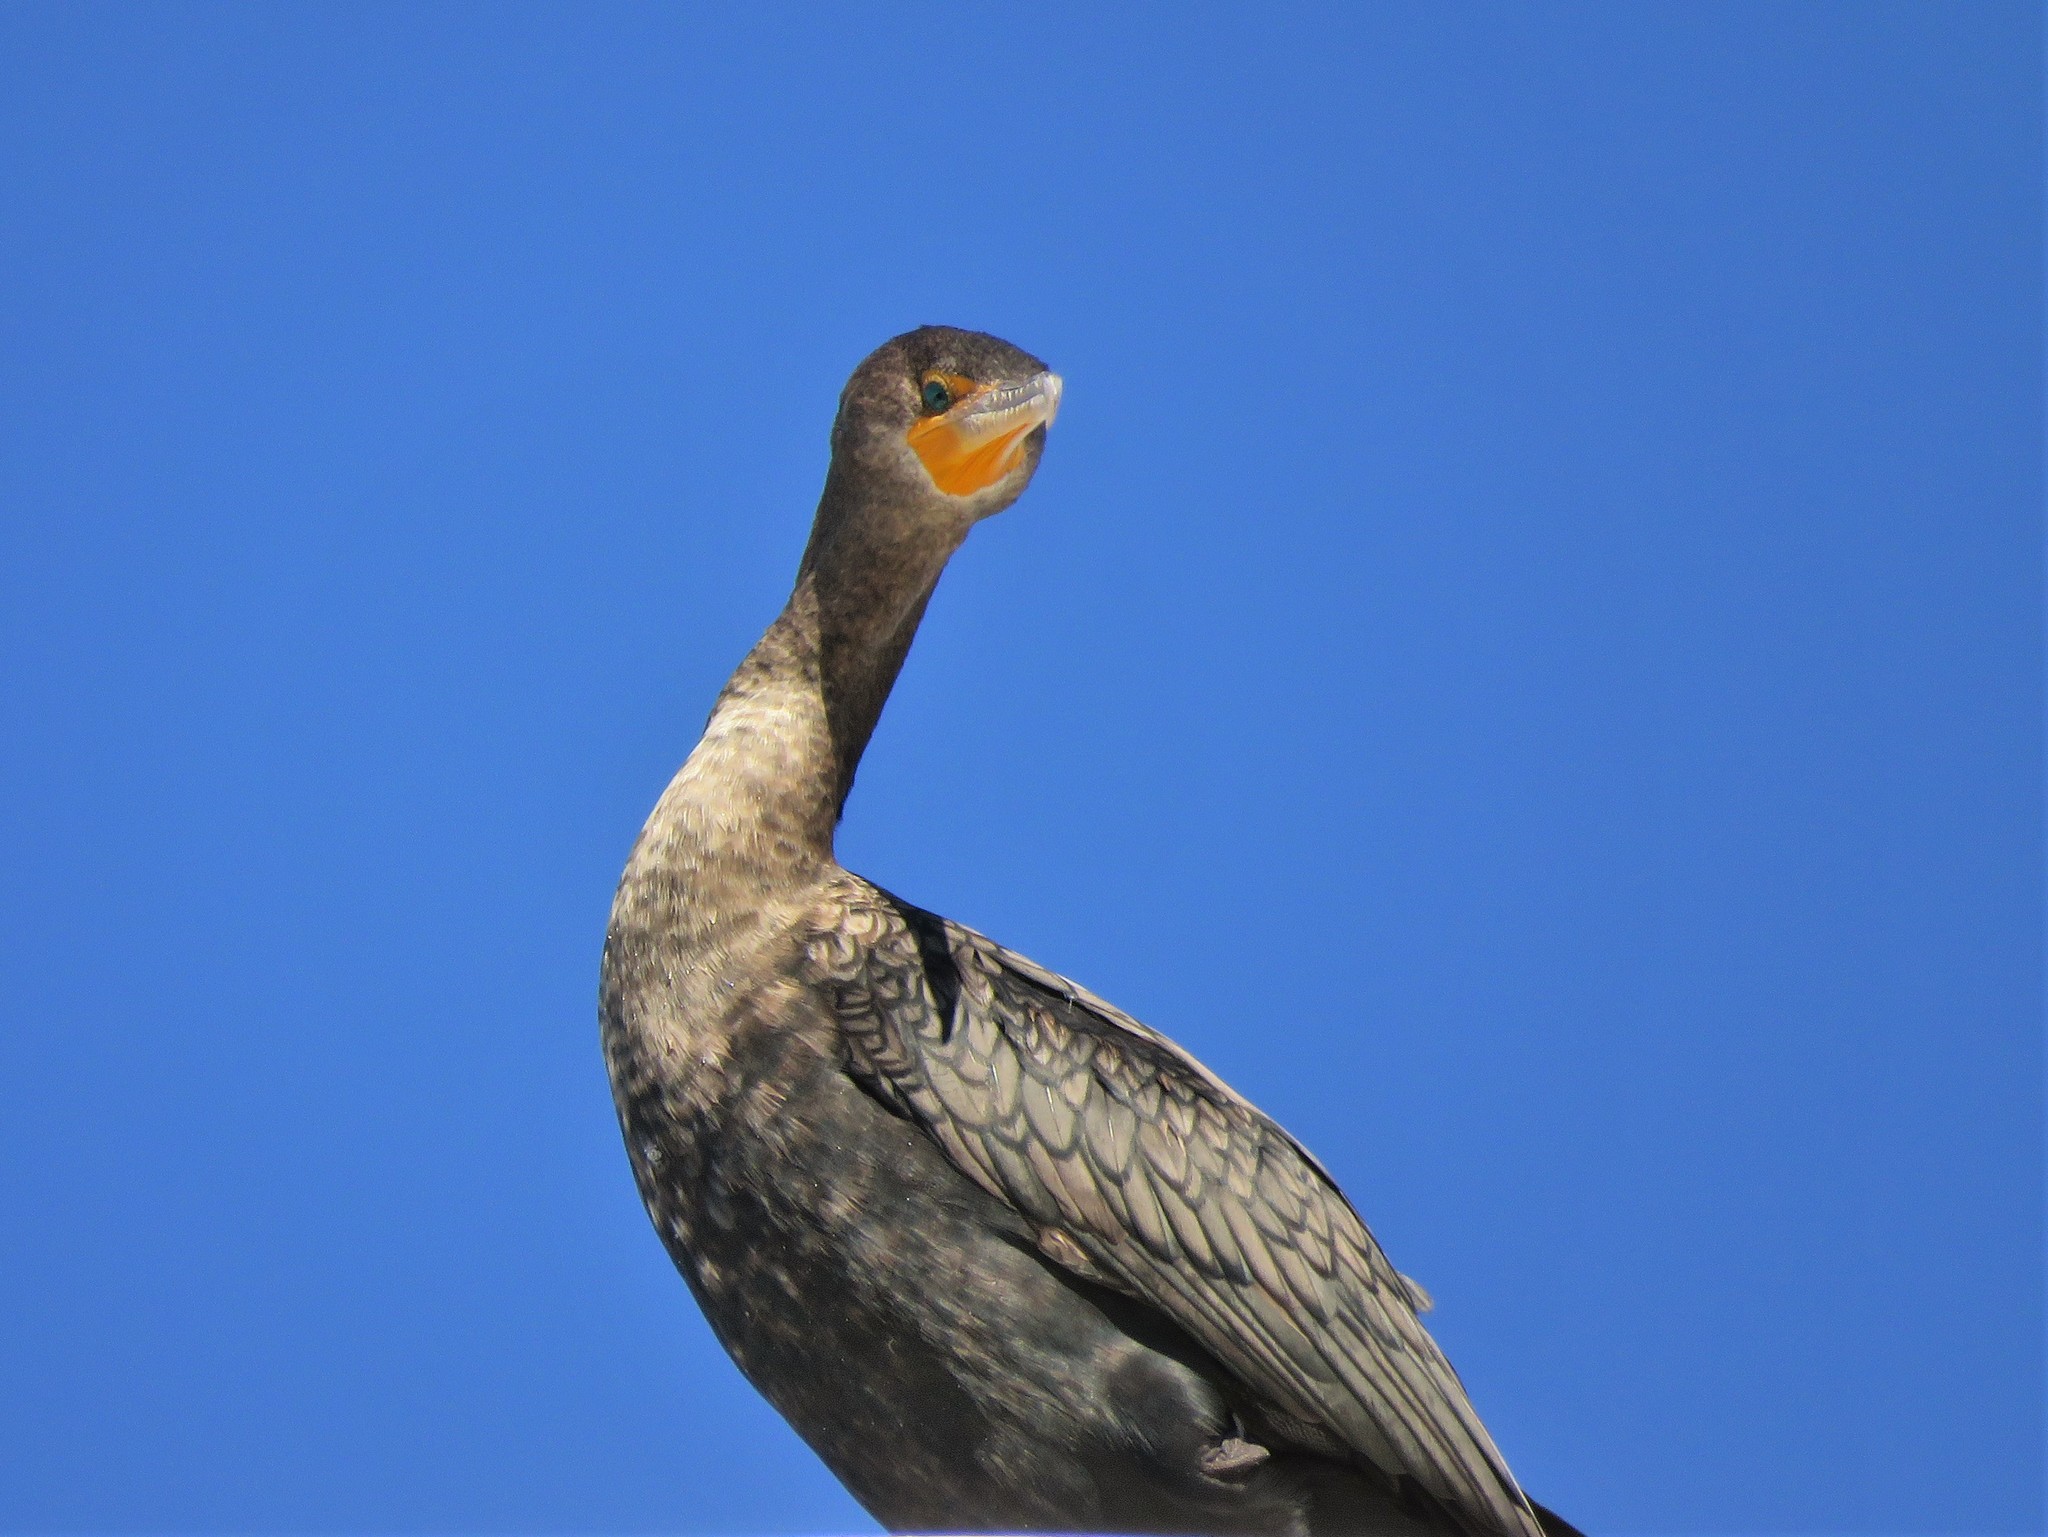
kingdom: Animalia
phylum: Chordata
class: Aves
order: Suliformes
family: Phalacrocoracidae
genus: Phalacrocorax
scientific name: Phalacrocorax auritus
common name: Double-crested cormorant
